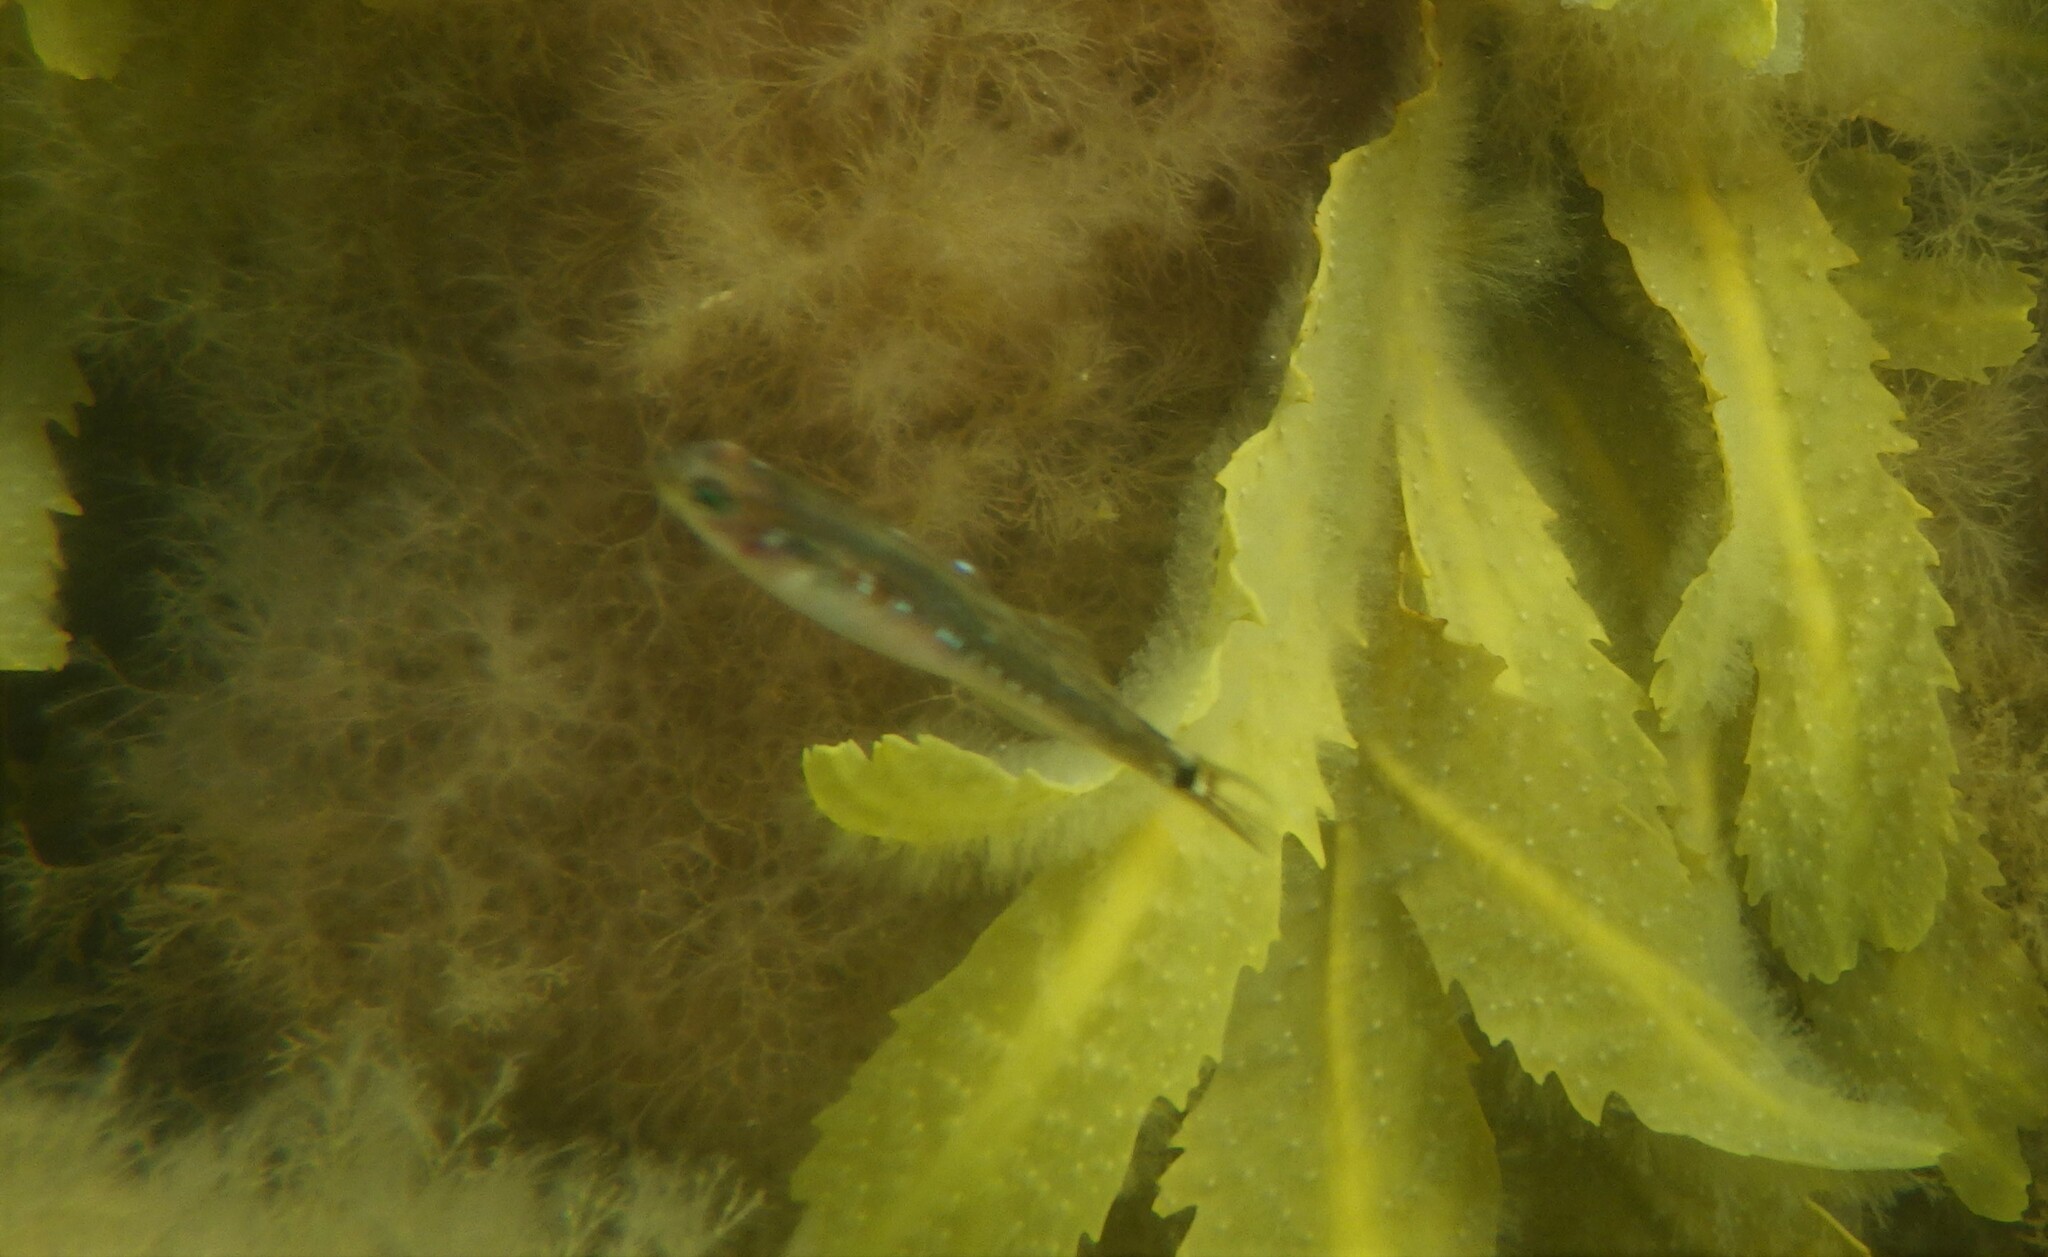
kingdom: Animalia
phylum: Chordata
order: Perciformes
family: Gobiidae
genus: Gobiusculus
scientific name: Gobiusculus flavescens
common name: Two-spotted goby
